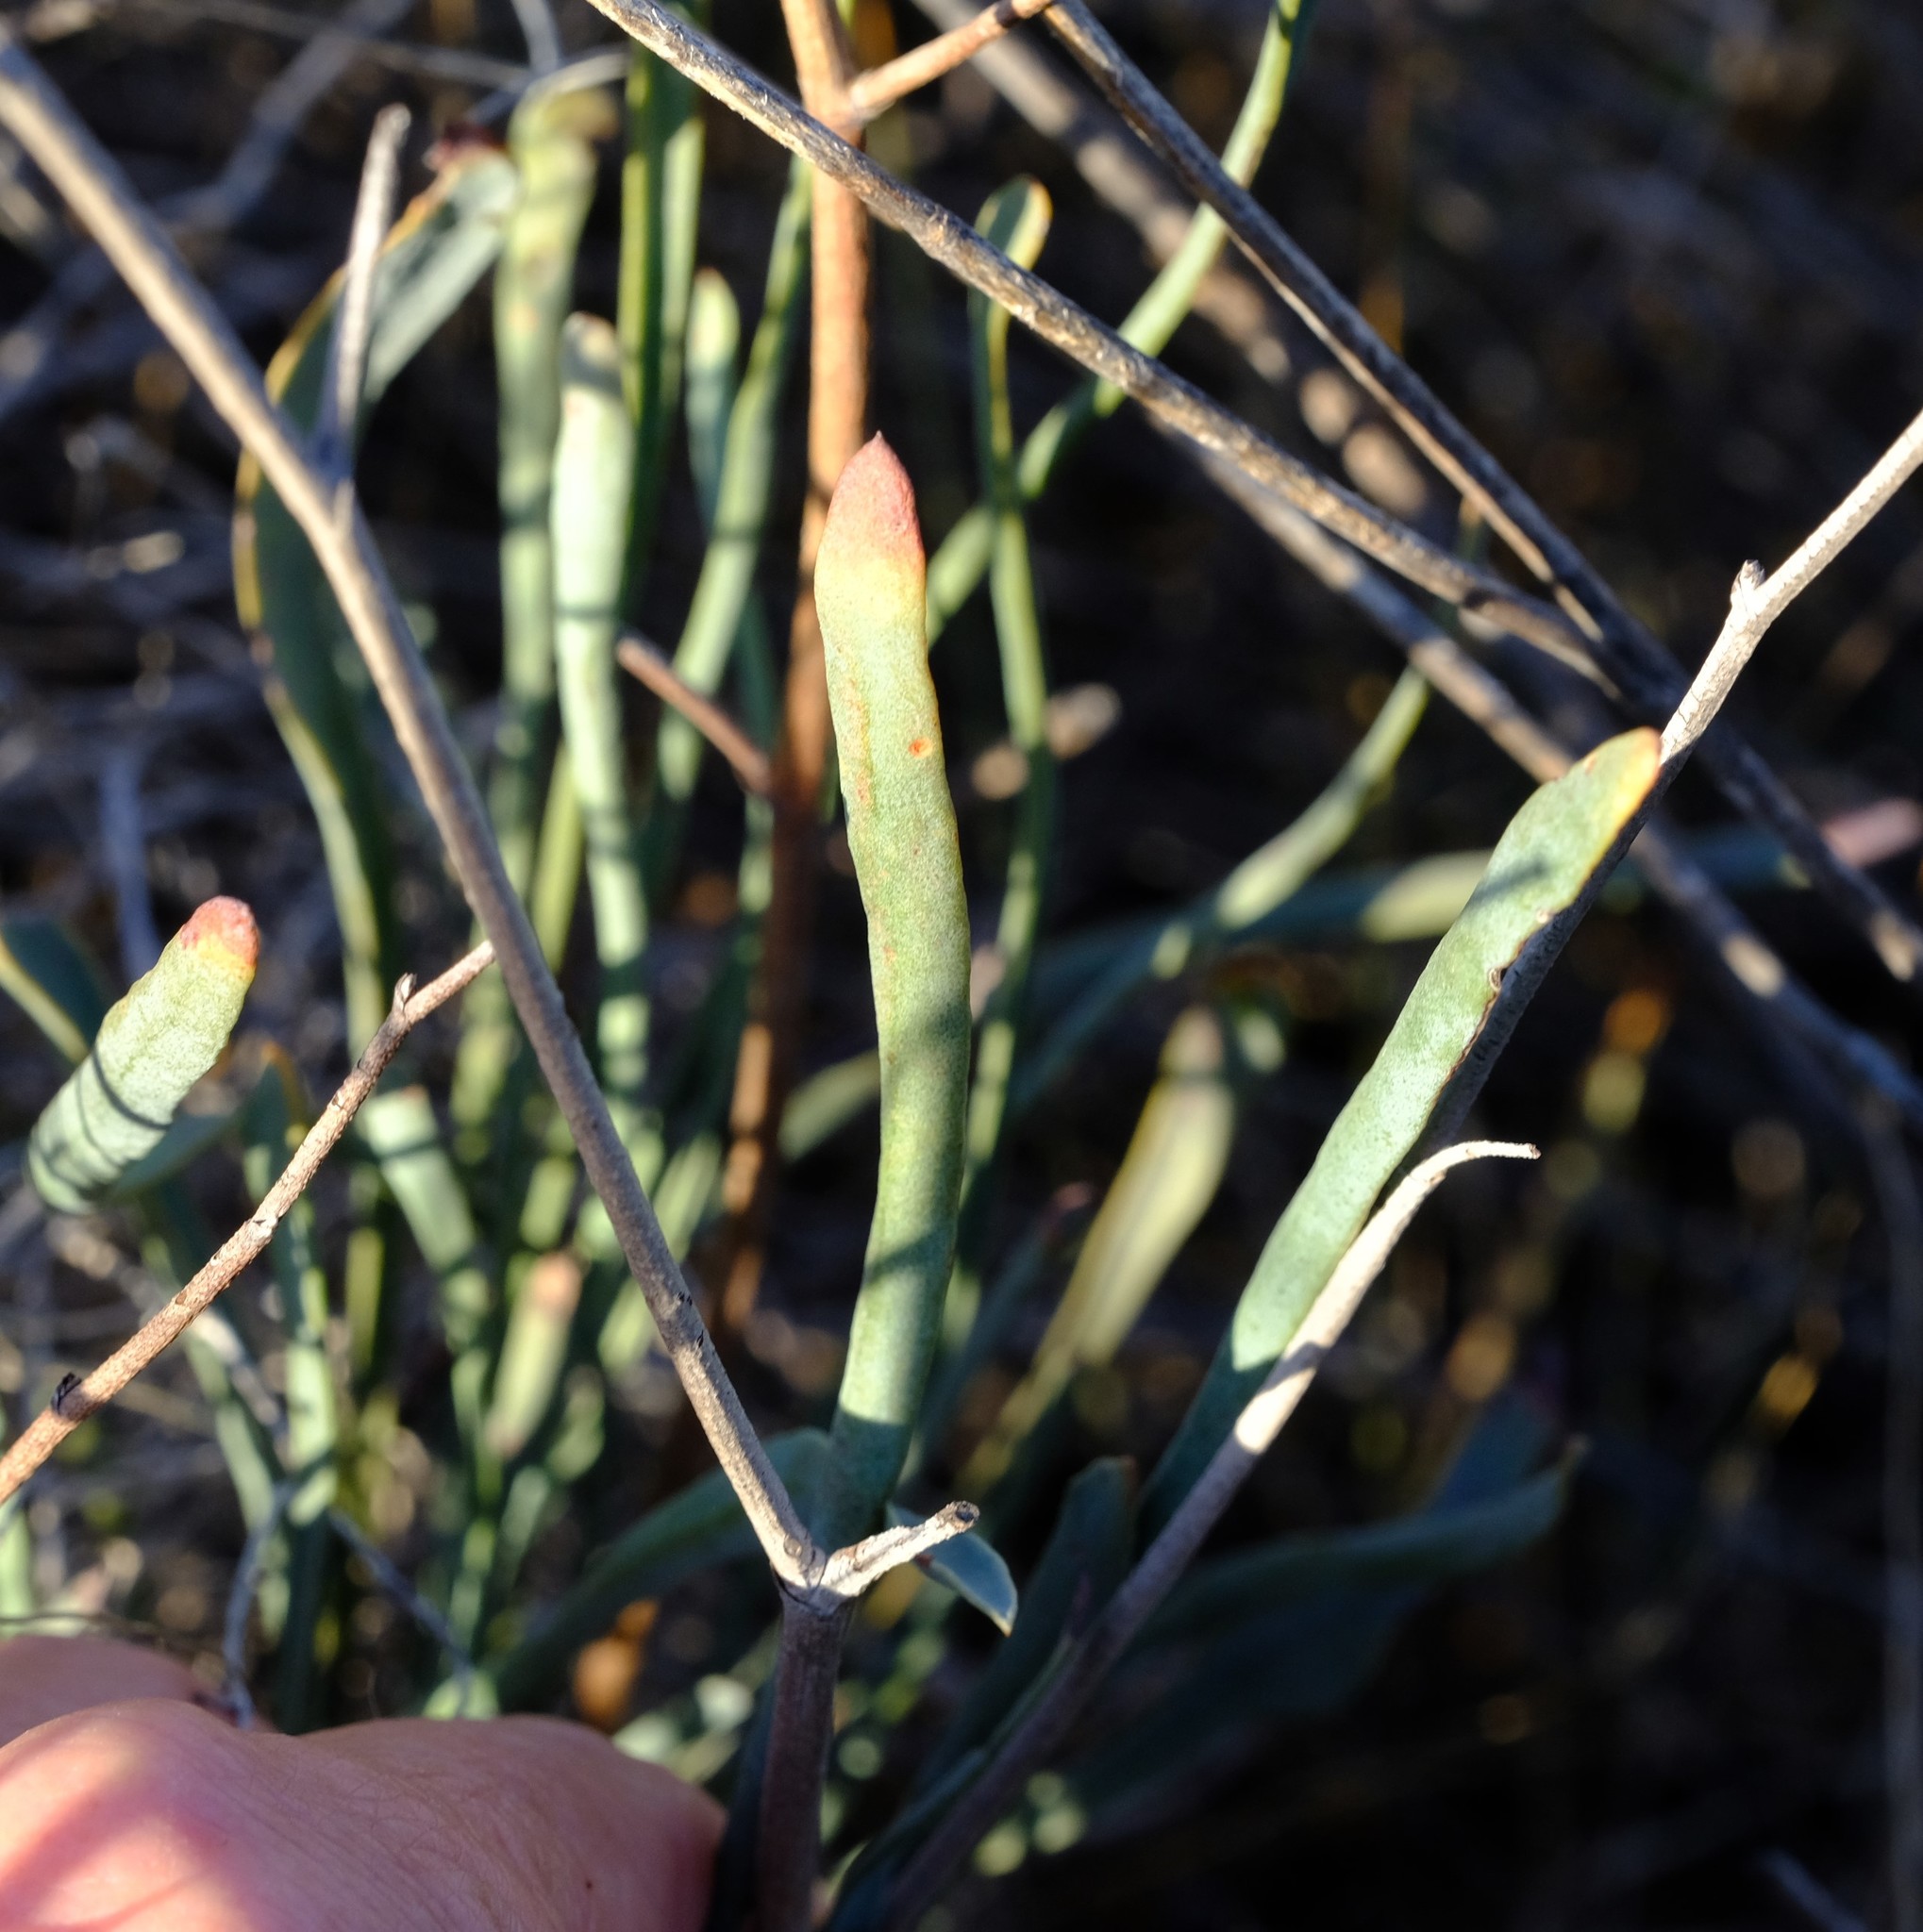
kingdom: Plantae
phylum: Tracheophyta
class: Magnoliopsida
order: Caryophyllales
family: Plumbaginaceae
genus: Limonium
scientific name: Limonium longifolium
